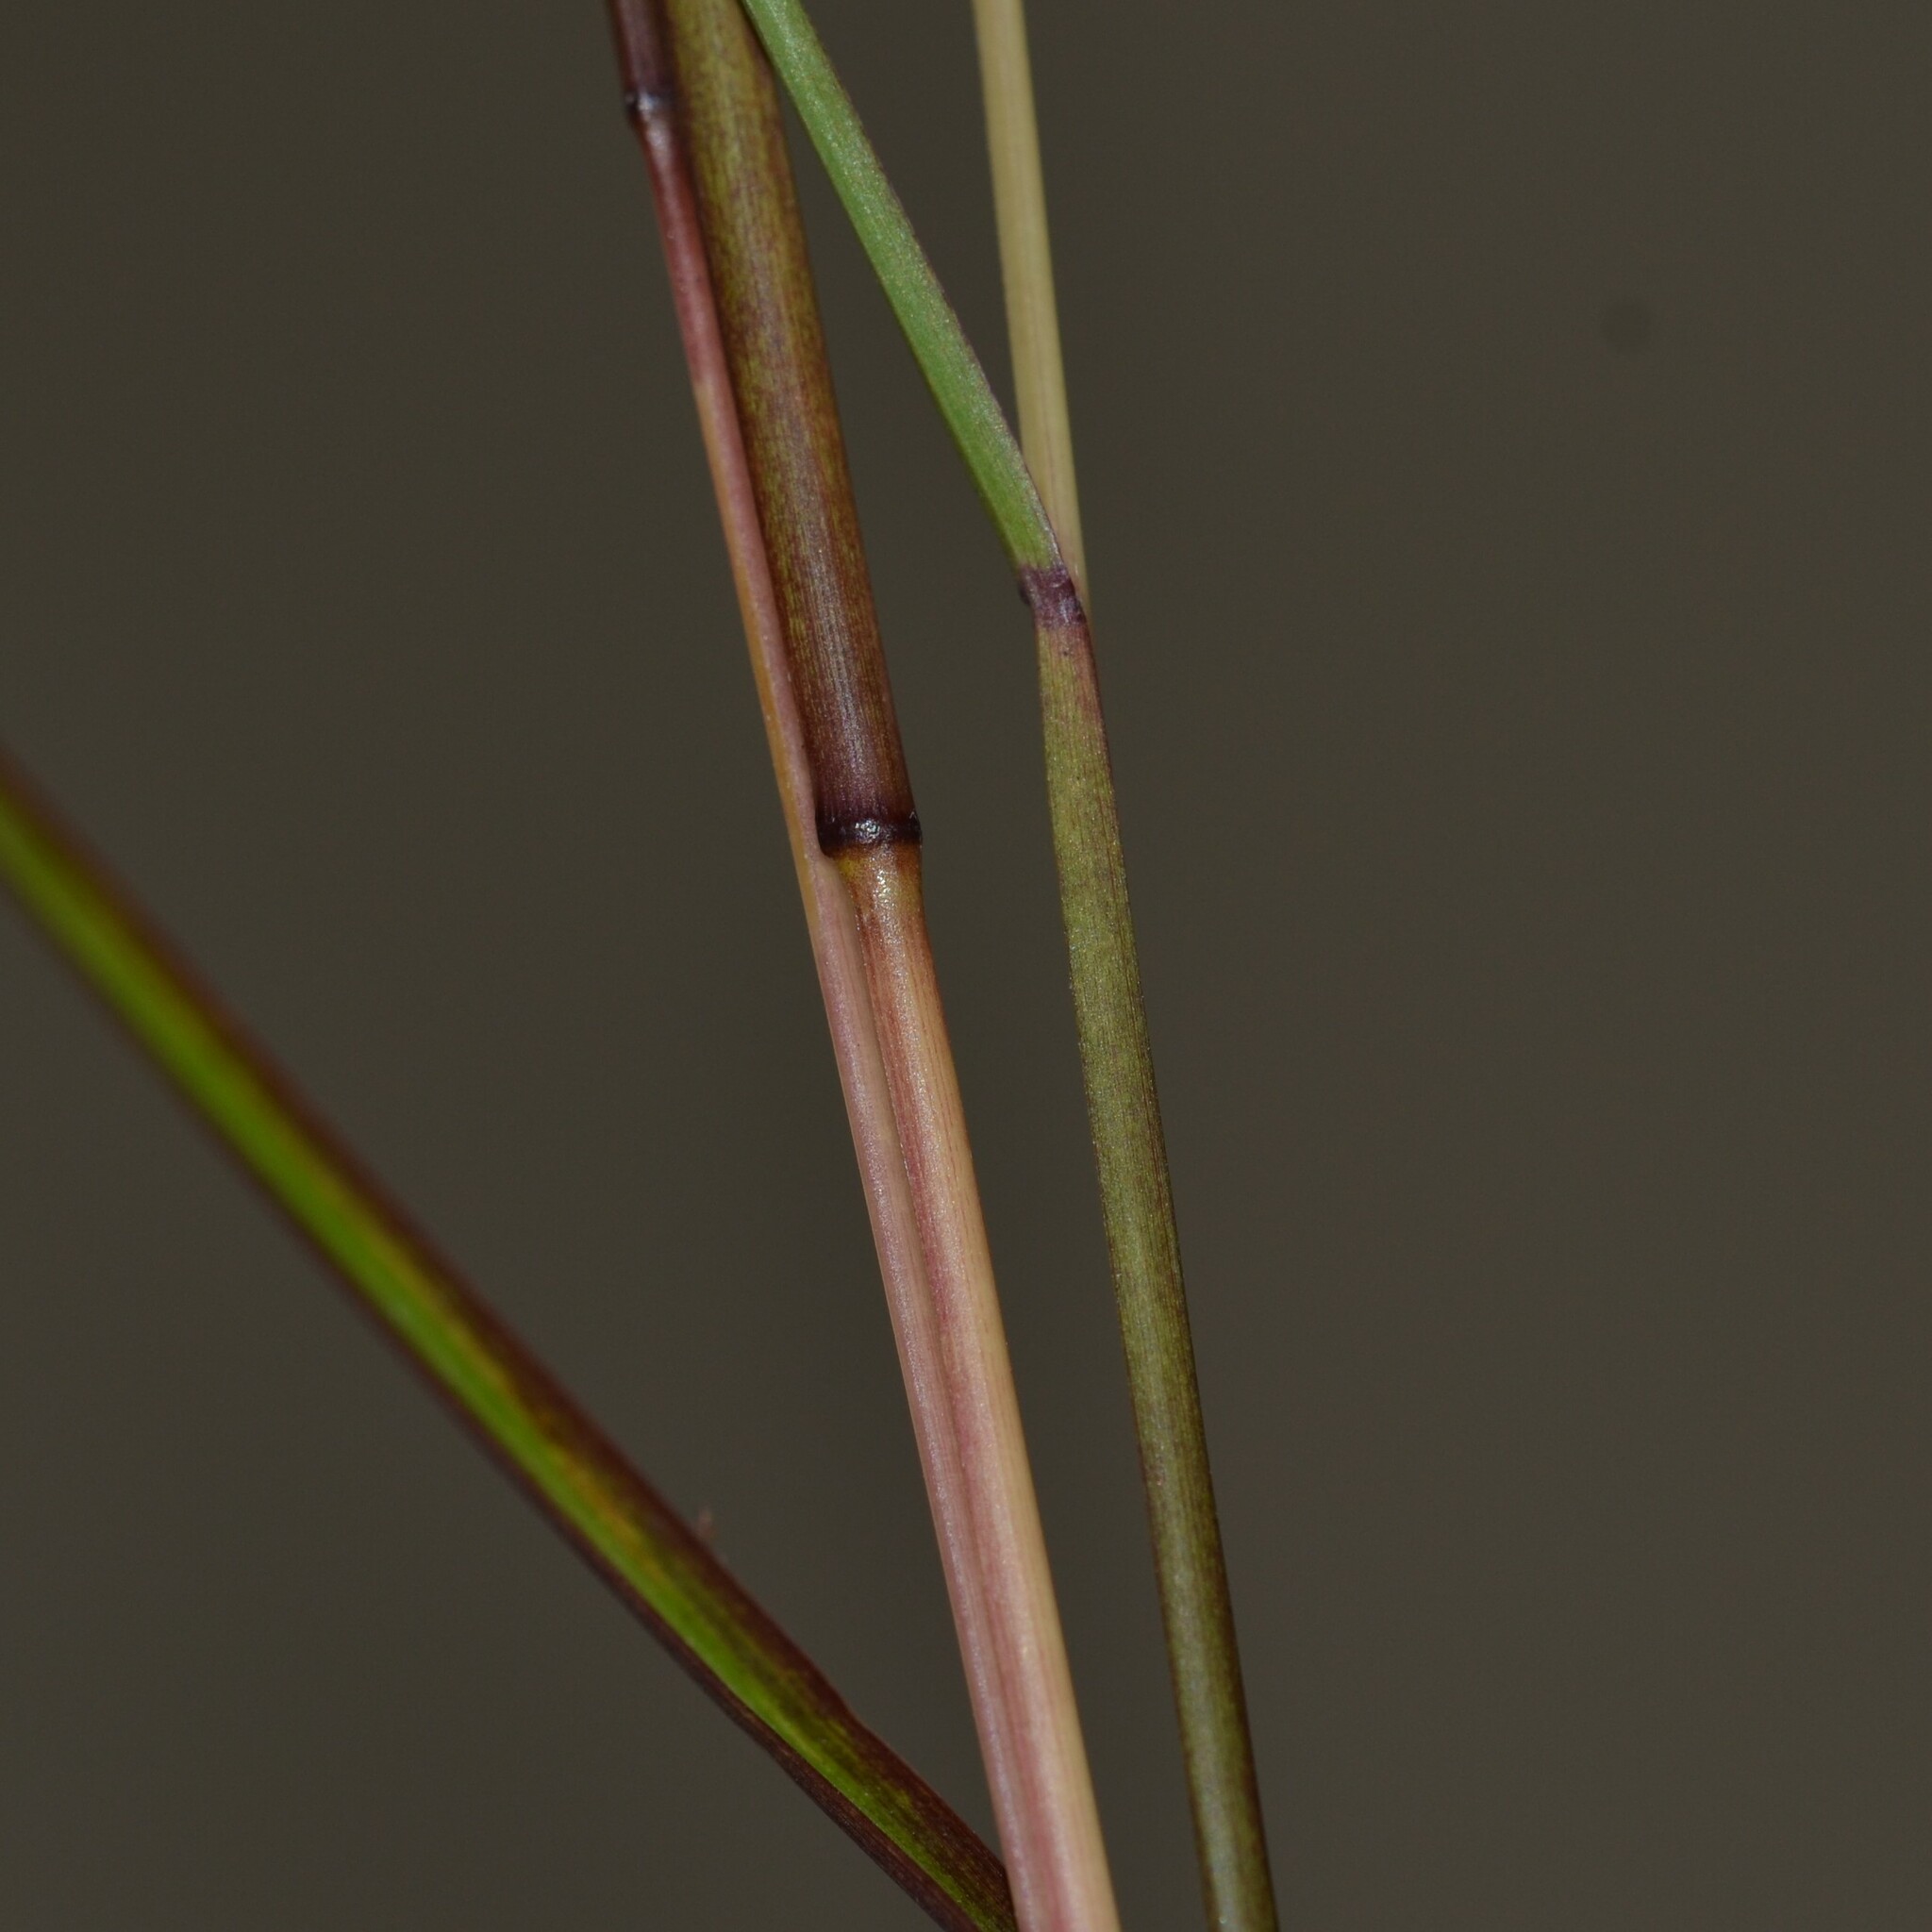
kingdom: Plantae
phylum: Tracheophyta
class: Liliopsida
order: Poales
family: Poaceae
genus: Schizachyrium
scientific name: Schizachyrium microstachyum
